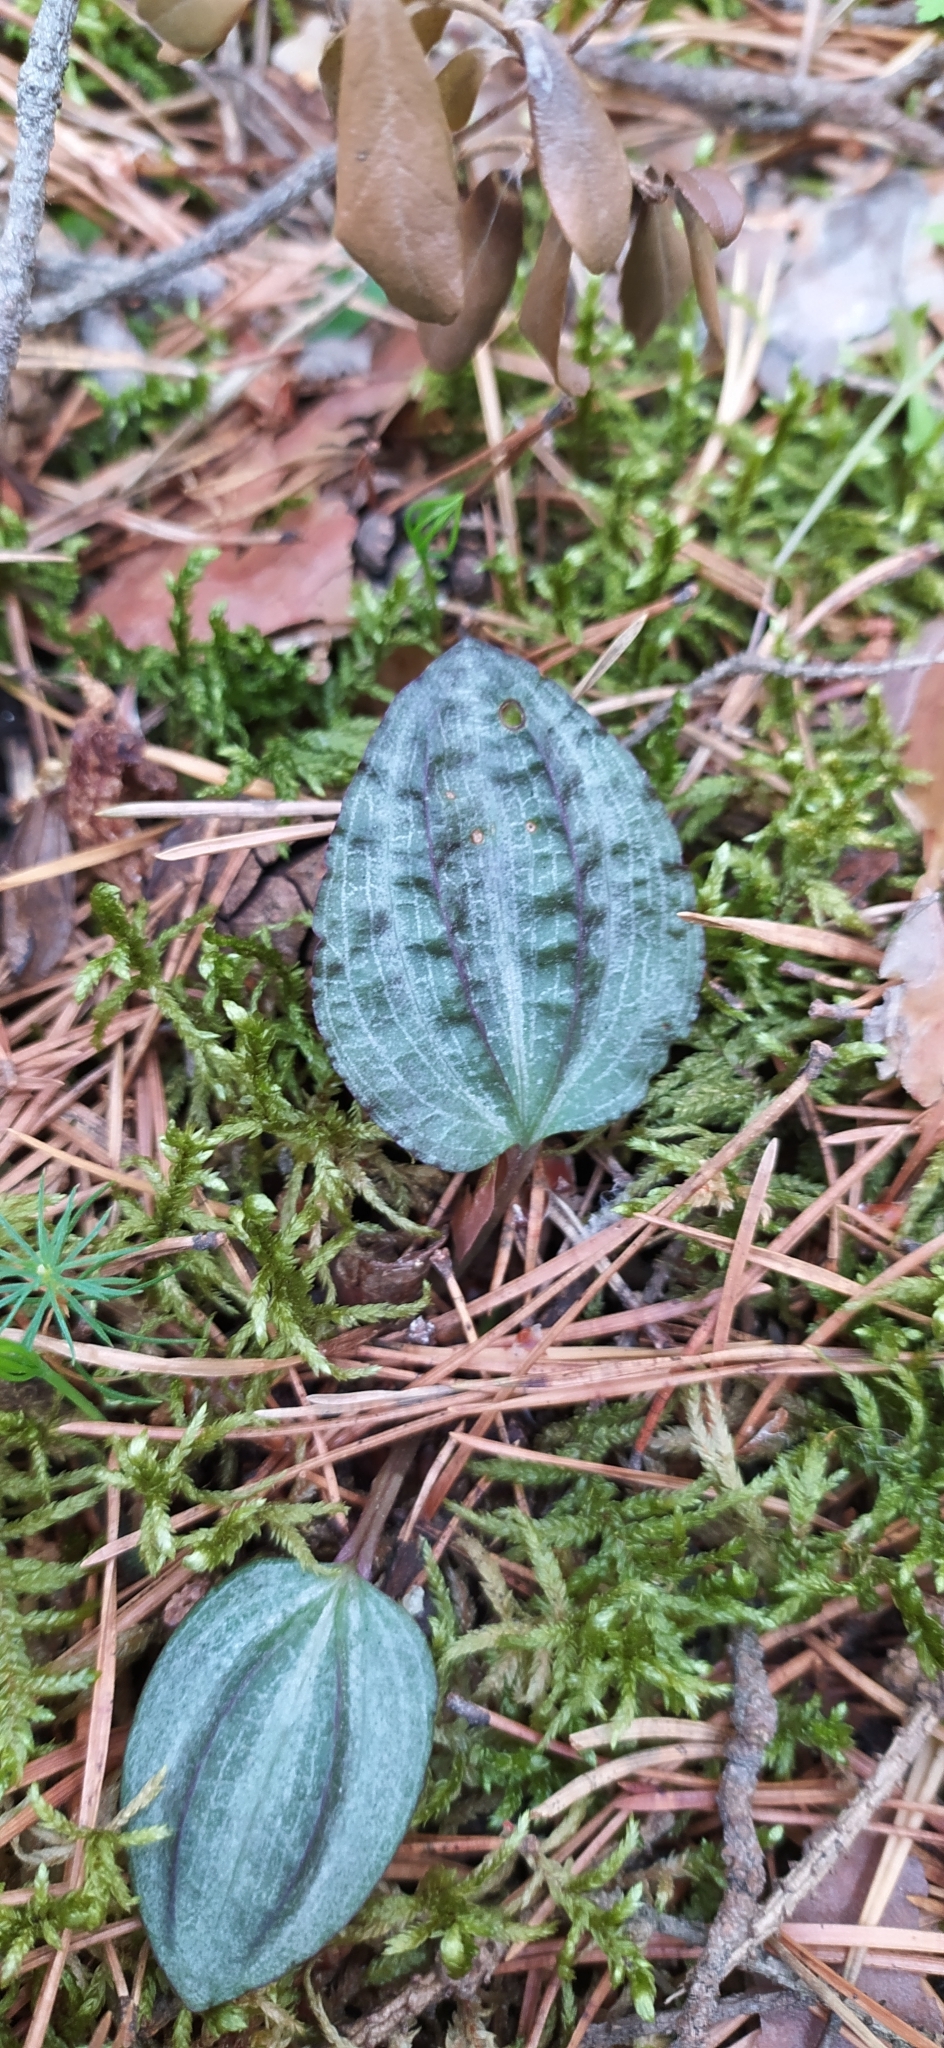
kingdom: Plantae
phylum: Tracheophyta
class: Liliopsida
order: Asparagales
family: Orchidaceae
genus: Calypso
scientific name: Calypso bulbosa
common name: Calypso
